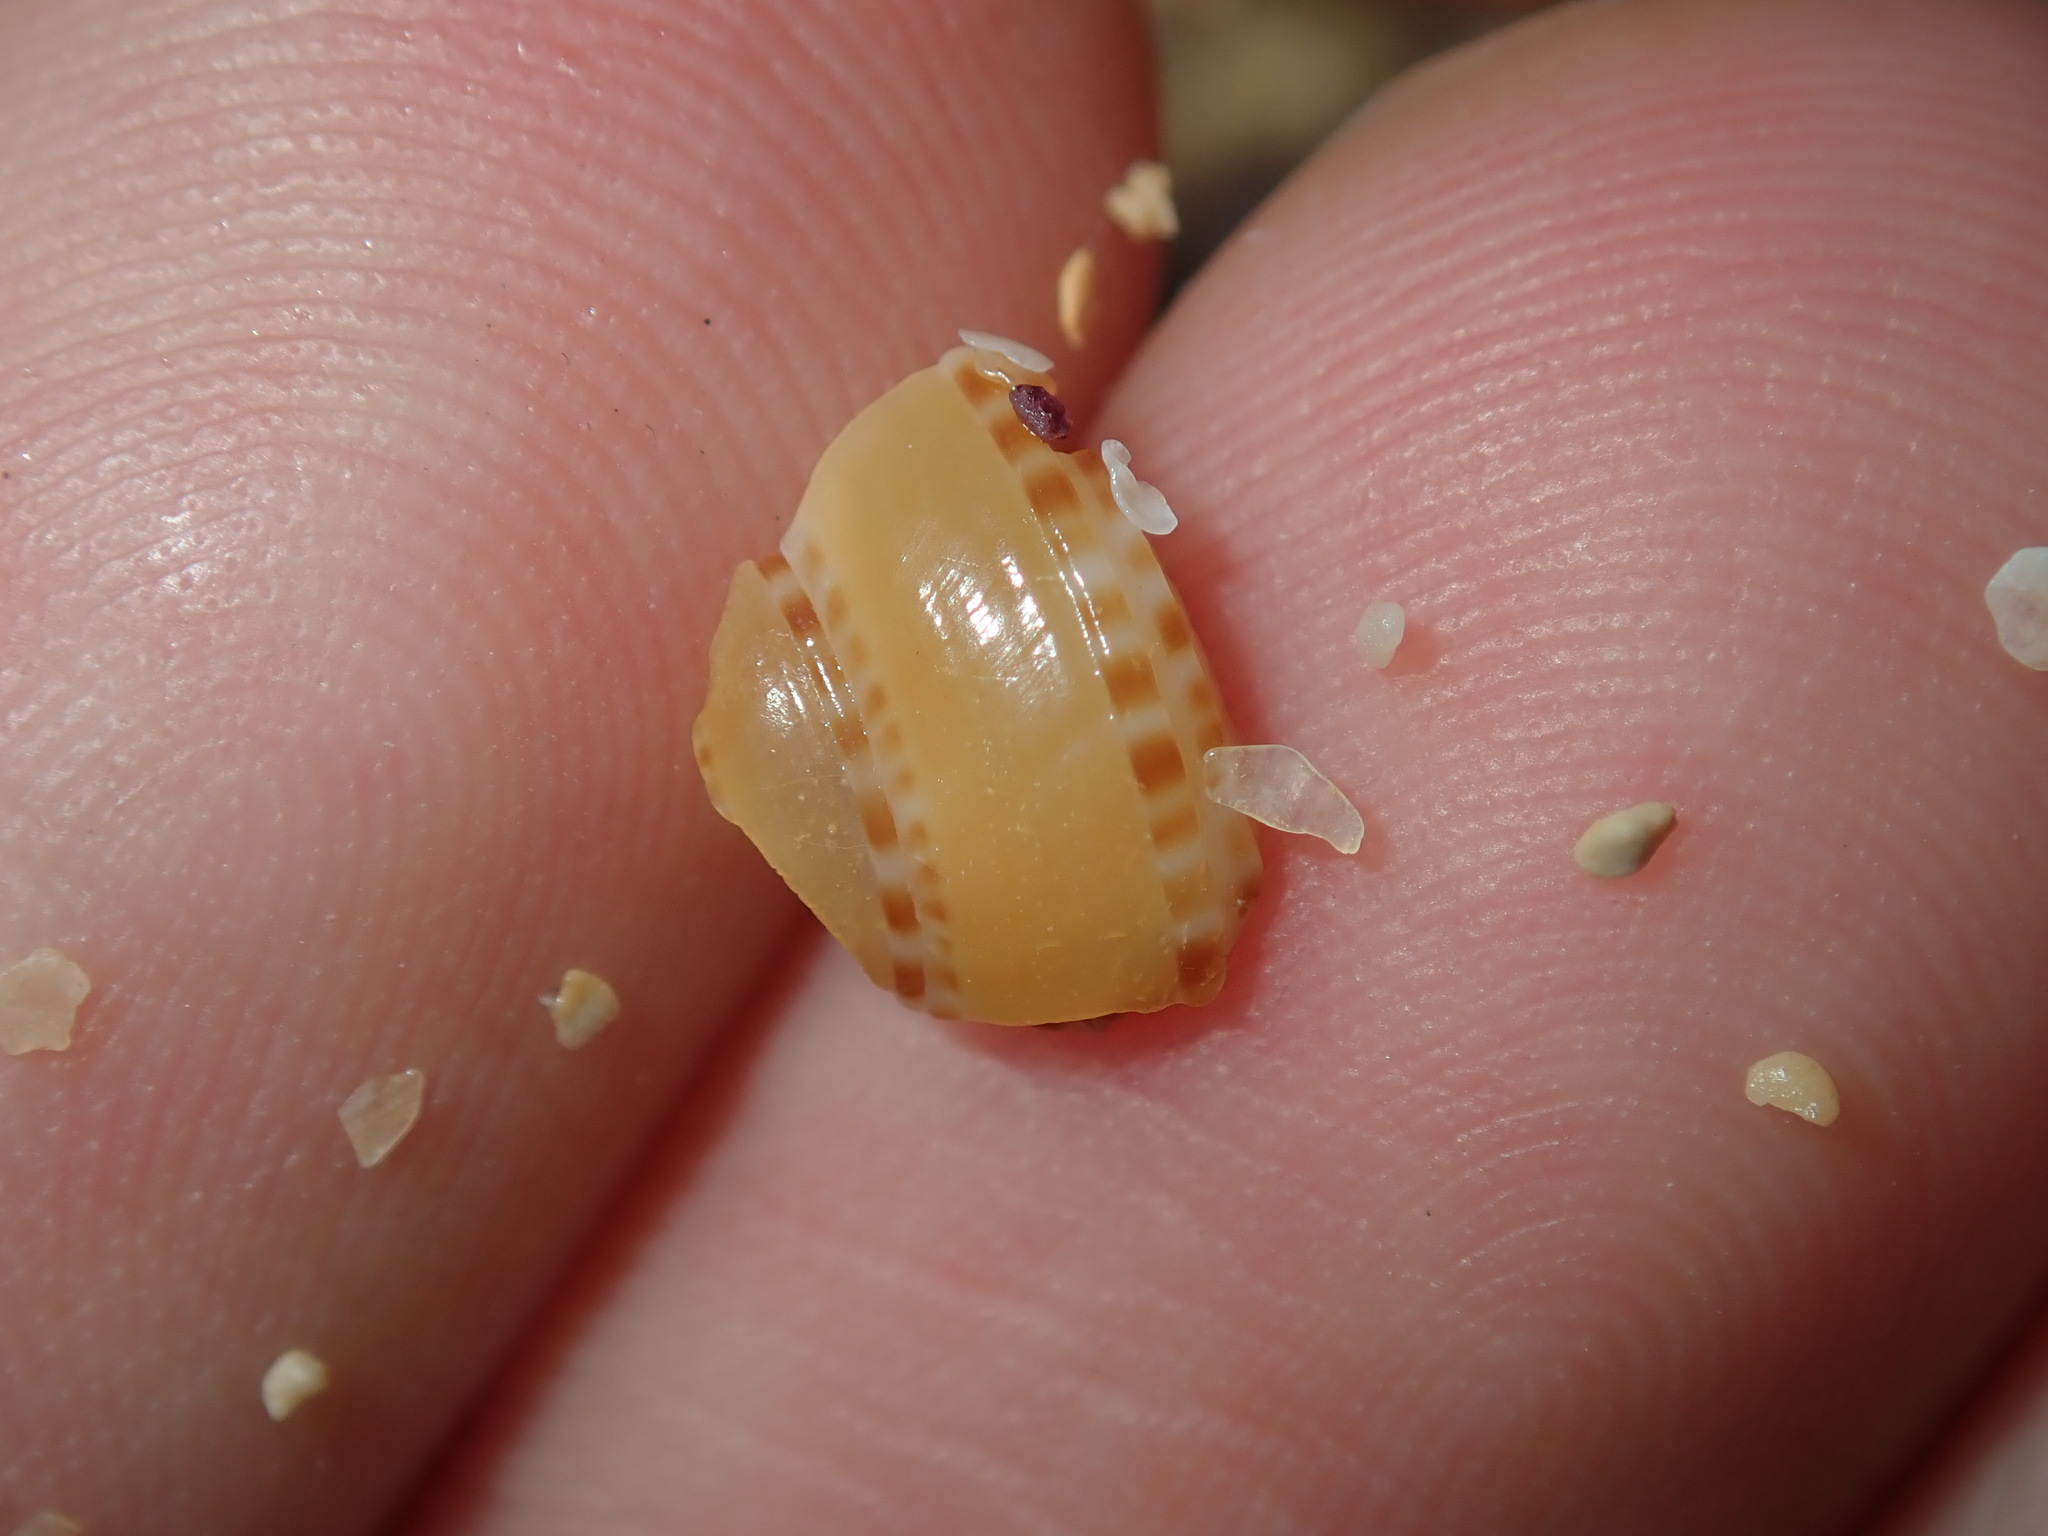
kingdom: Animalia
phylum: Mollusca
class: Gastropoda
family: Architectonicidae
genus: Philippia
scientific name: Philippia lutea
